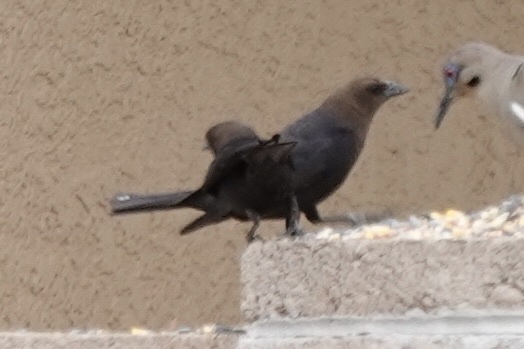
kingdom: Animalia
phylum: Chordata
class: Aves
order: Passeriformes
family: Icteridae
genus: Molothrus
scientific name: Molothrus ater
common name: Brown-headed cowbird
